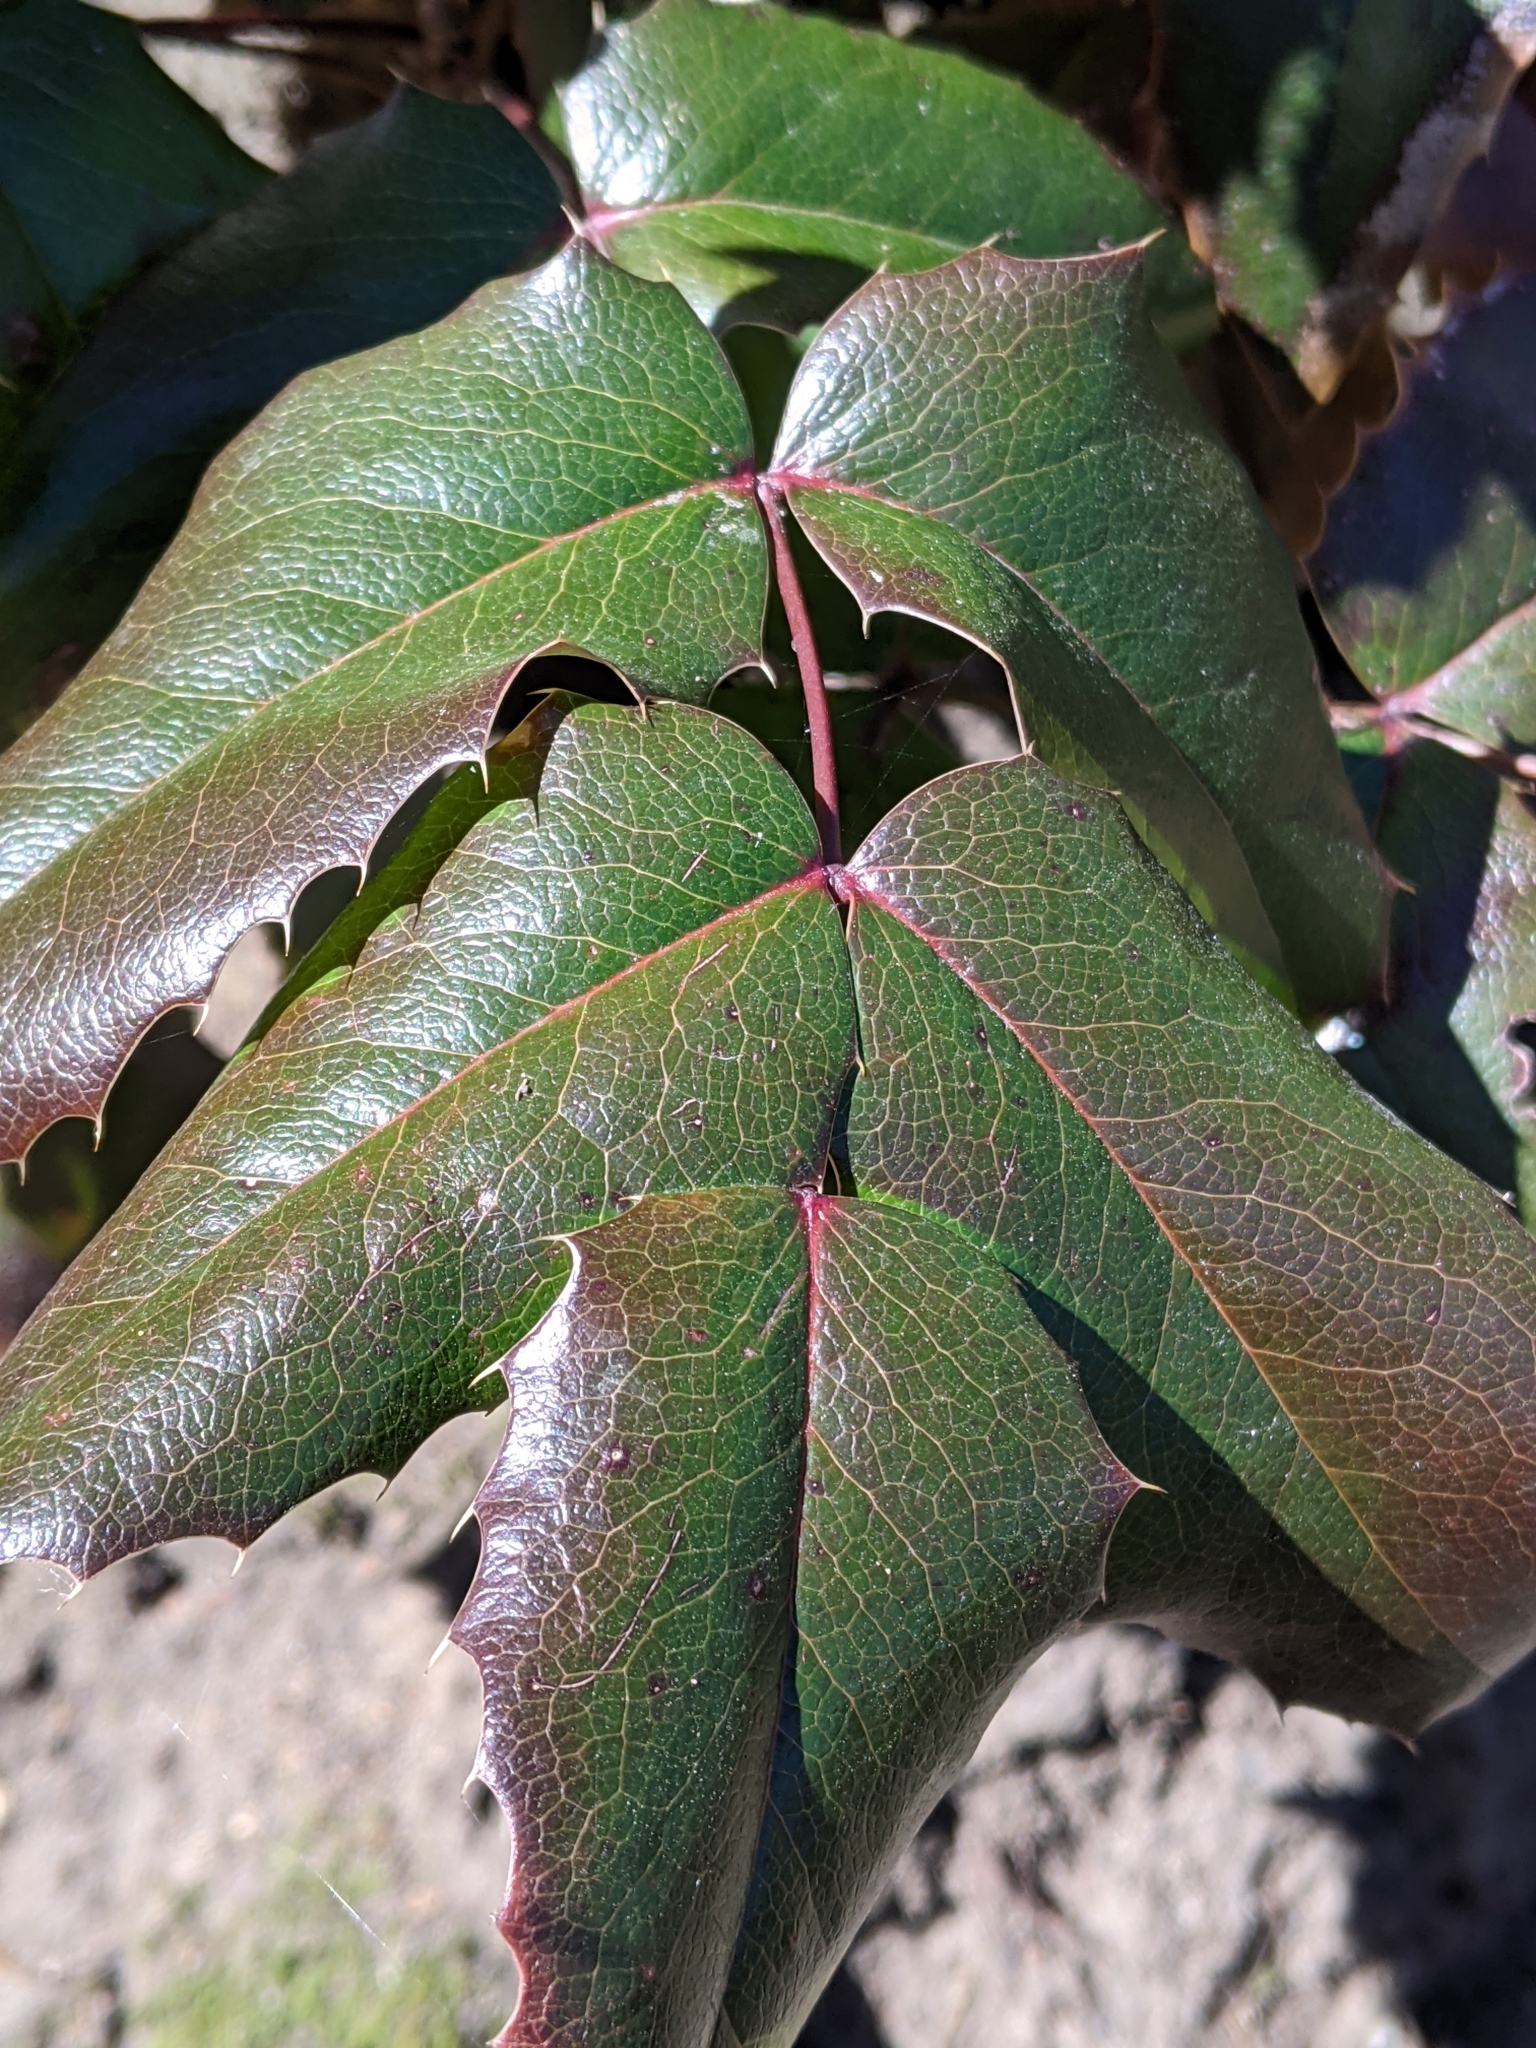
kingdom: Plantae
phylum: Tracheophyta
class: Magnoliopsida
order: Ranunculales
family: Berberidaceae
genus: Mahonia
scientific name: Mahonia aquifolium
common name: Oregon-grape
